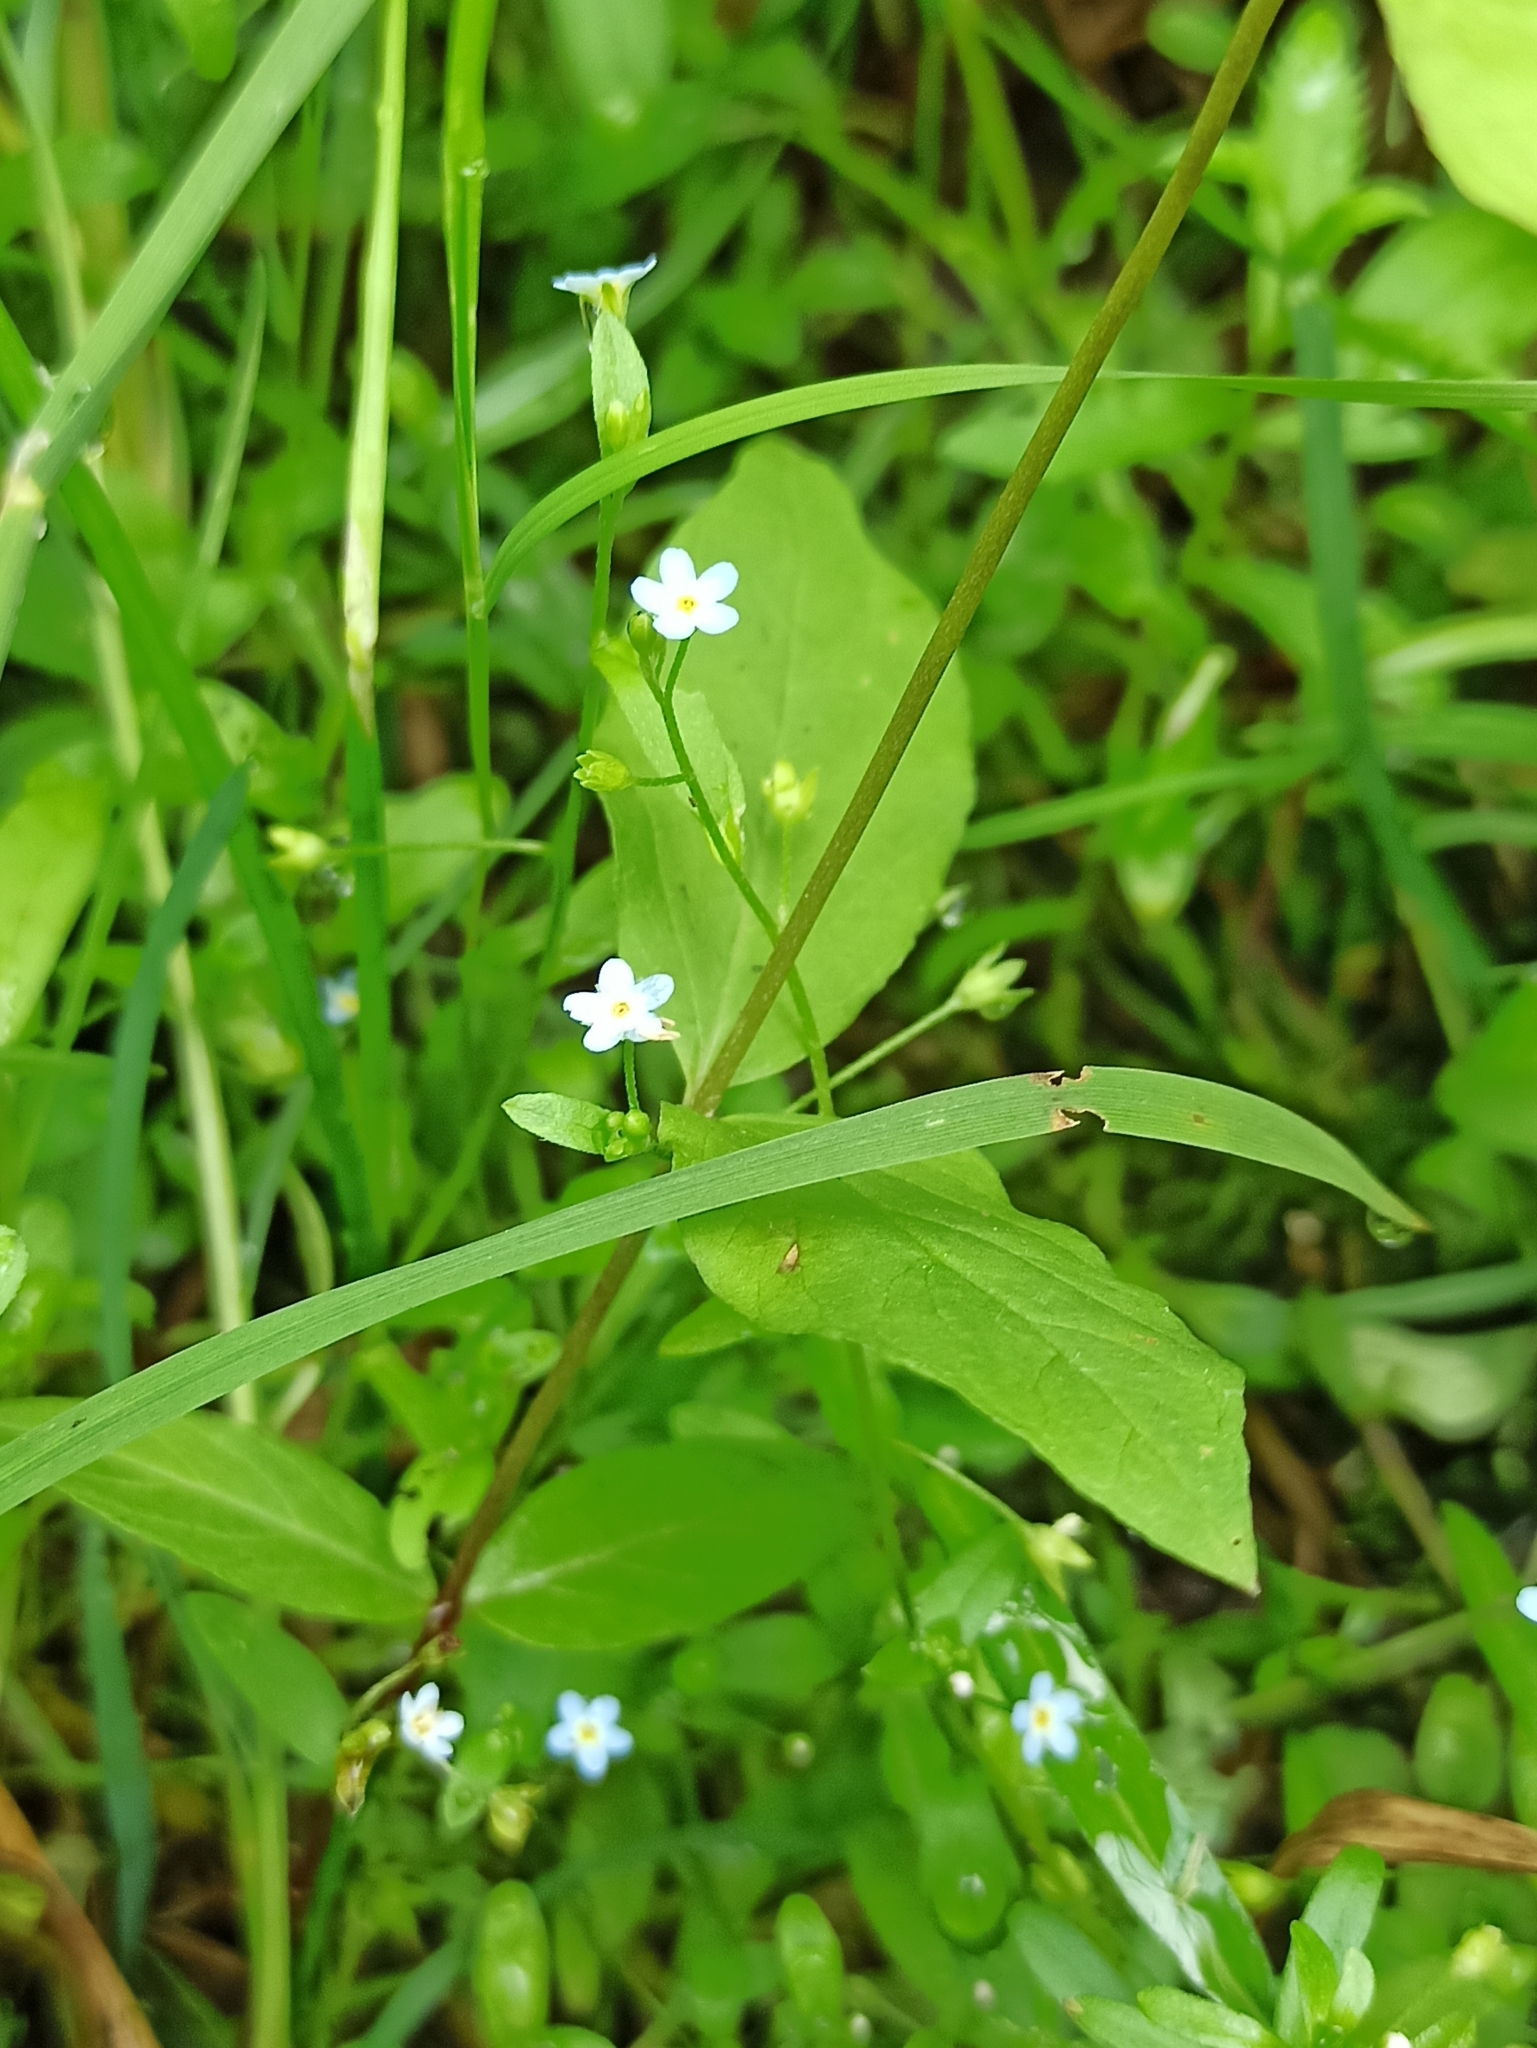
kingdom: Plantae
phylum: Tracheophyta
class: Magnoliopsida
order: Boraginales
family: Boraginaceae
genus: Myosotis
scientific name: Myosotis scorpioides
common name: Water forget-me-not
